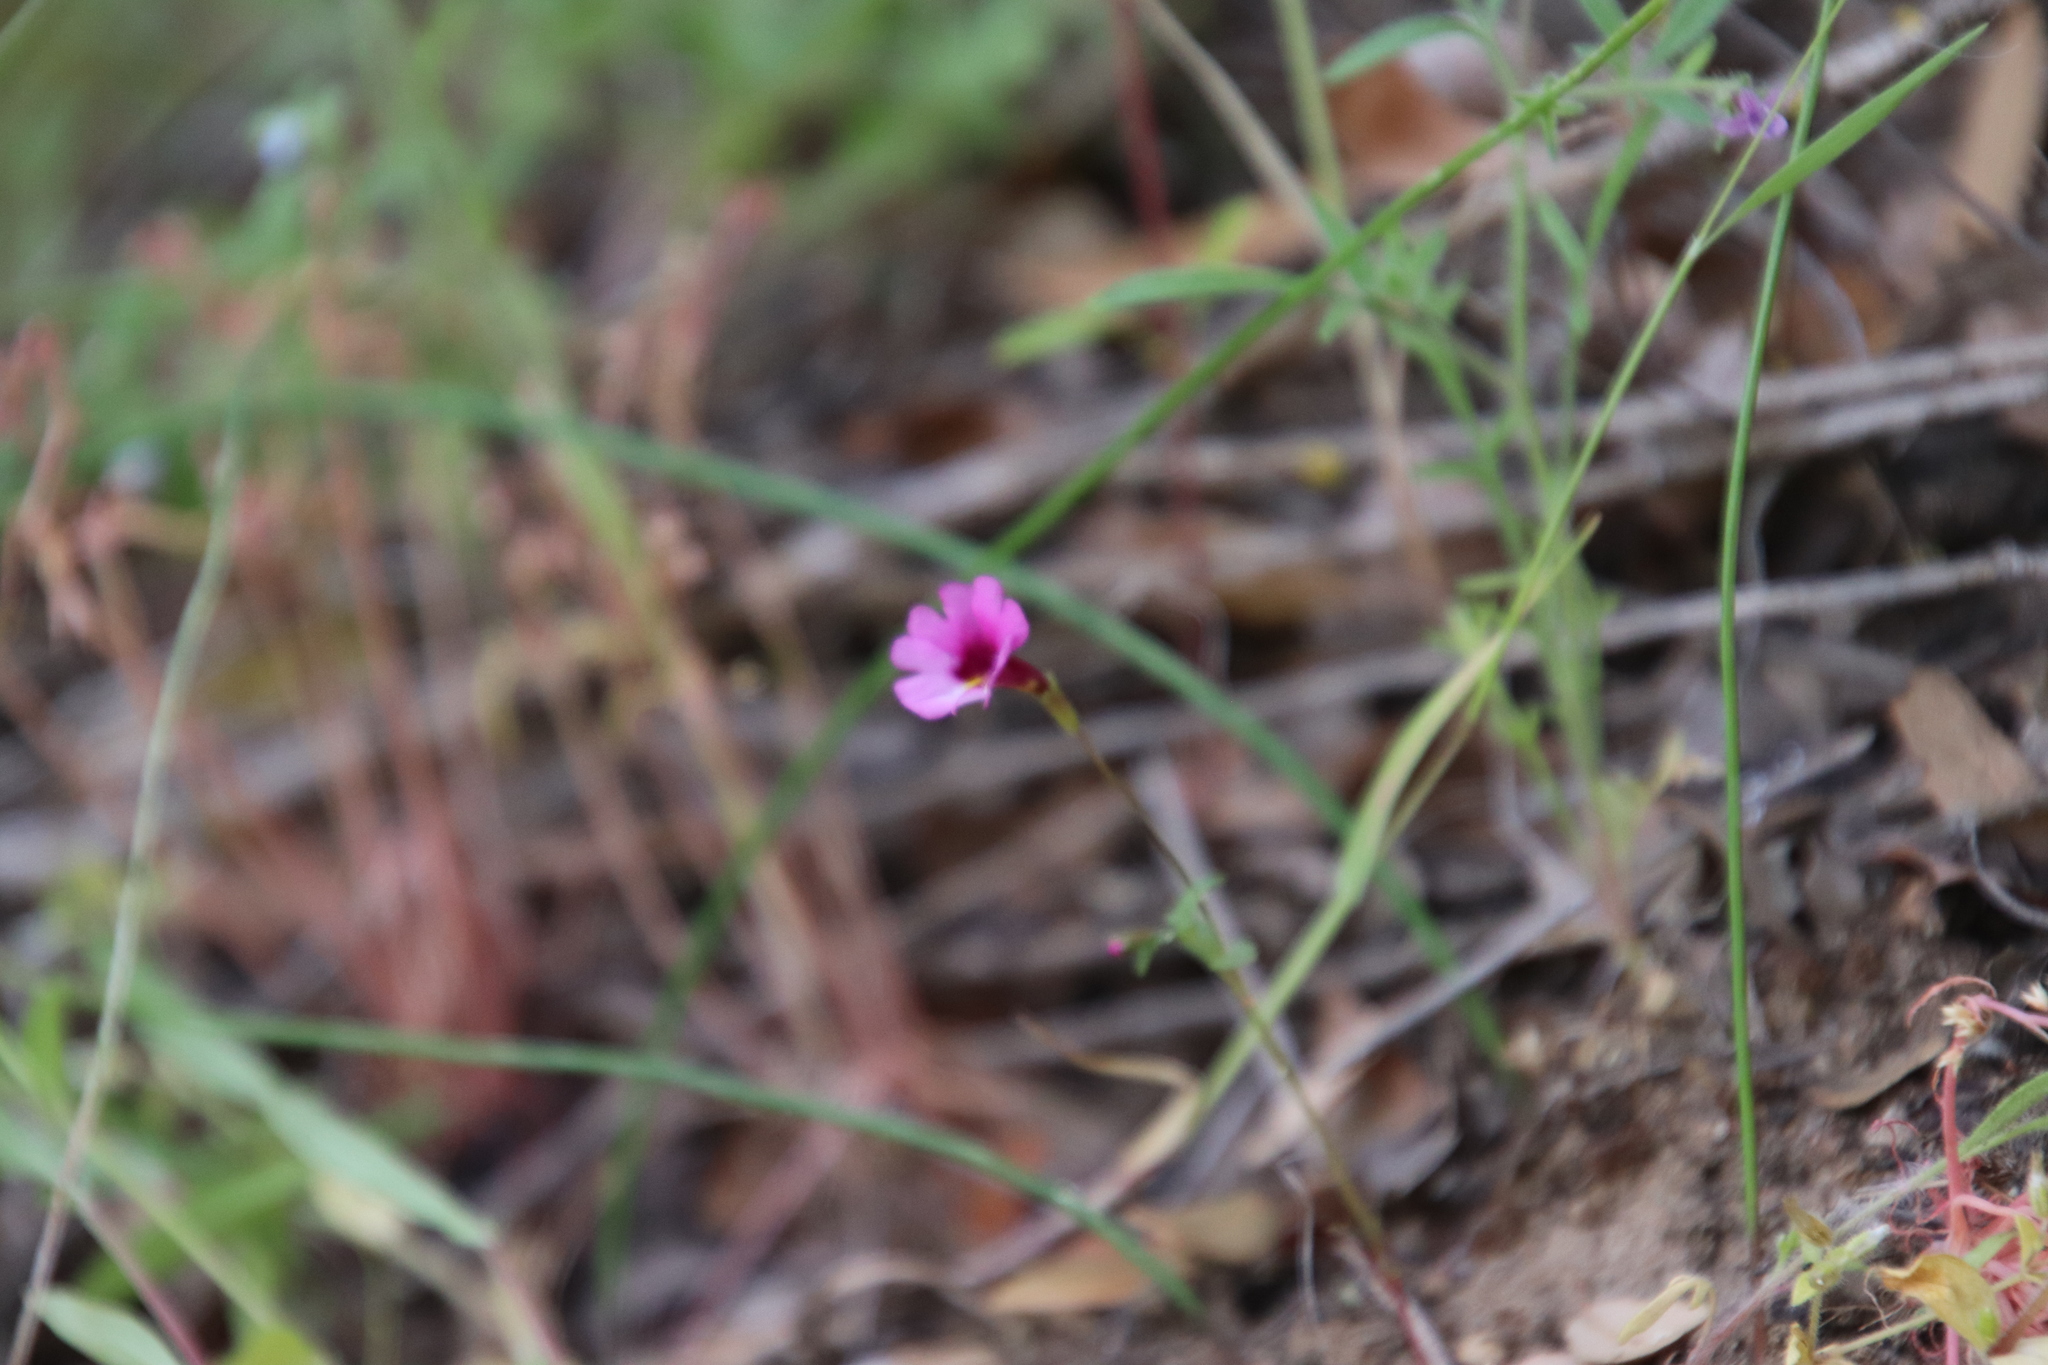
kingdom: Plantae
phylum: Tracheophyta
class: Magnoliopsida
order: Lamiales
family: Phrymaceae
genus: Erythranthe
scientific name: Erythranthe diffusa
